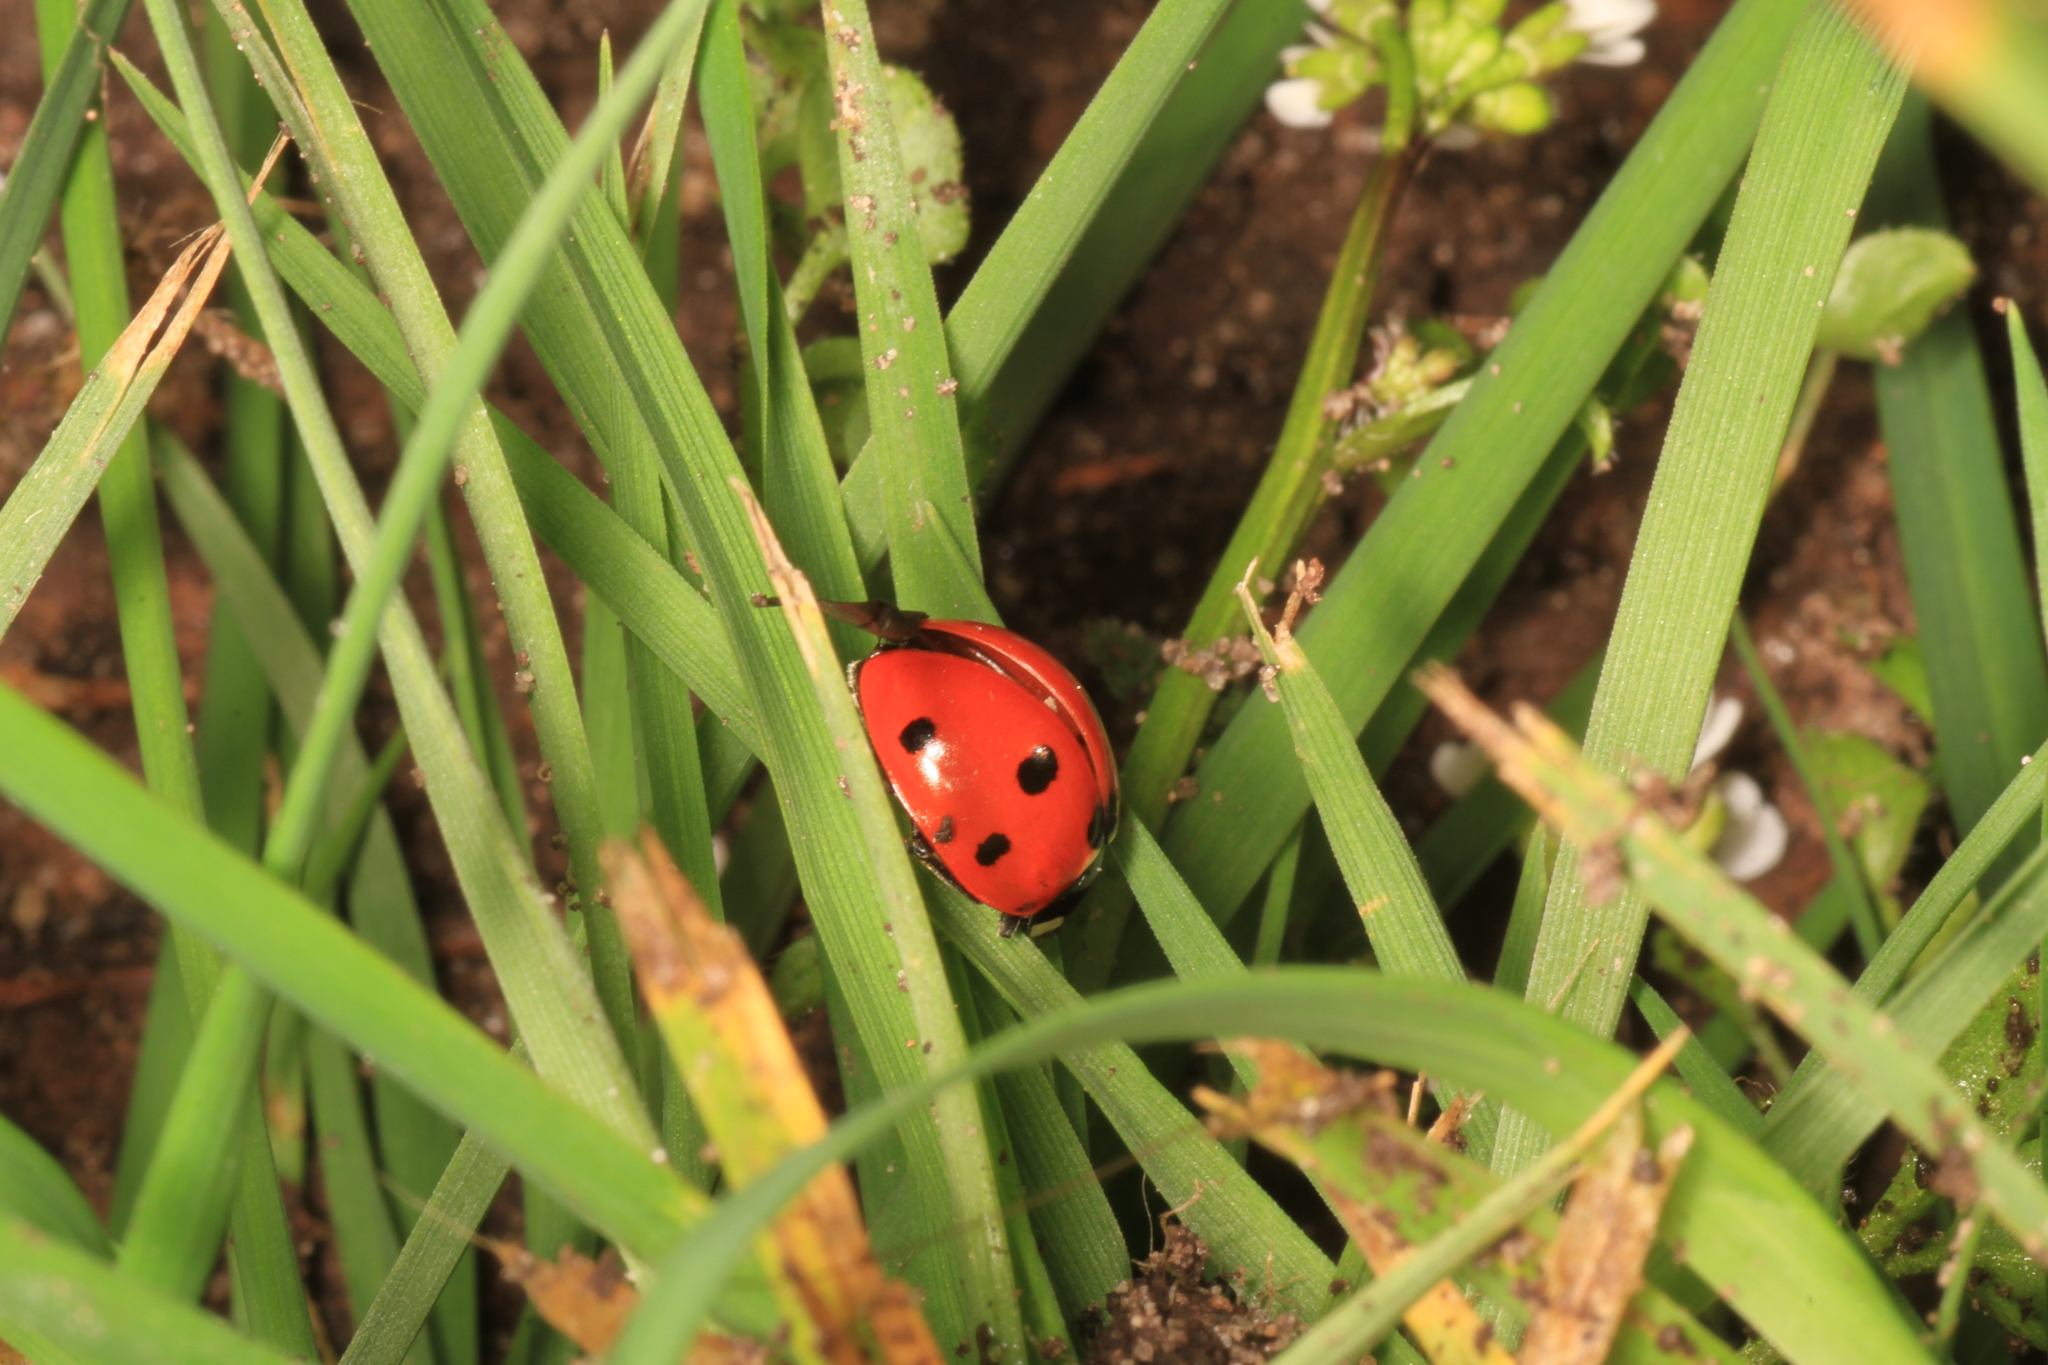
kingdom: Animalia
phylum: Arthropoda
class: Insecta
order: Coleoptera
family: Coccinellidae
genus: Coccinella
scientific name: Coccinella septempunctata
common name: Sevenspotted lady beetle
